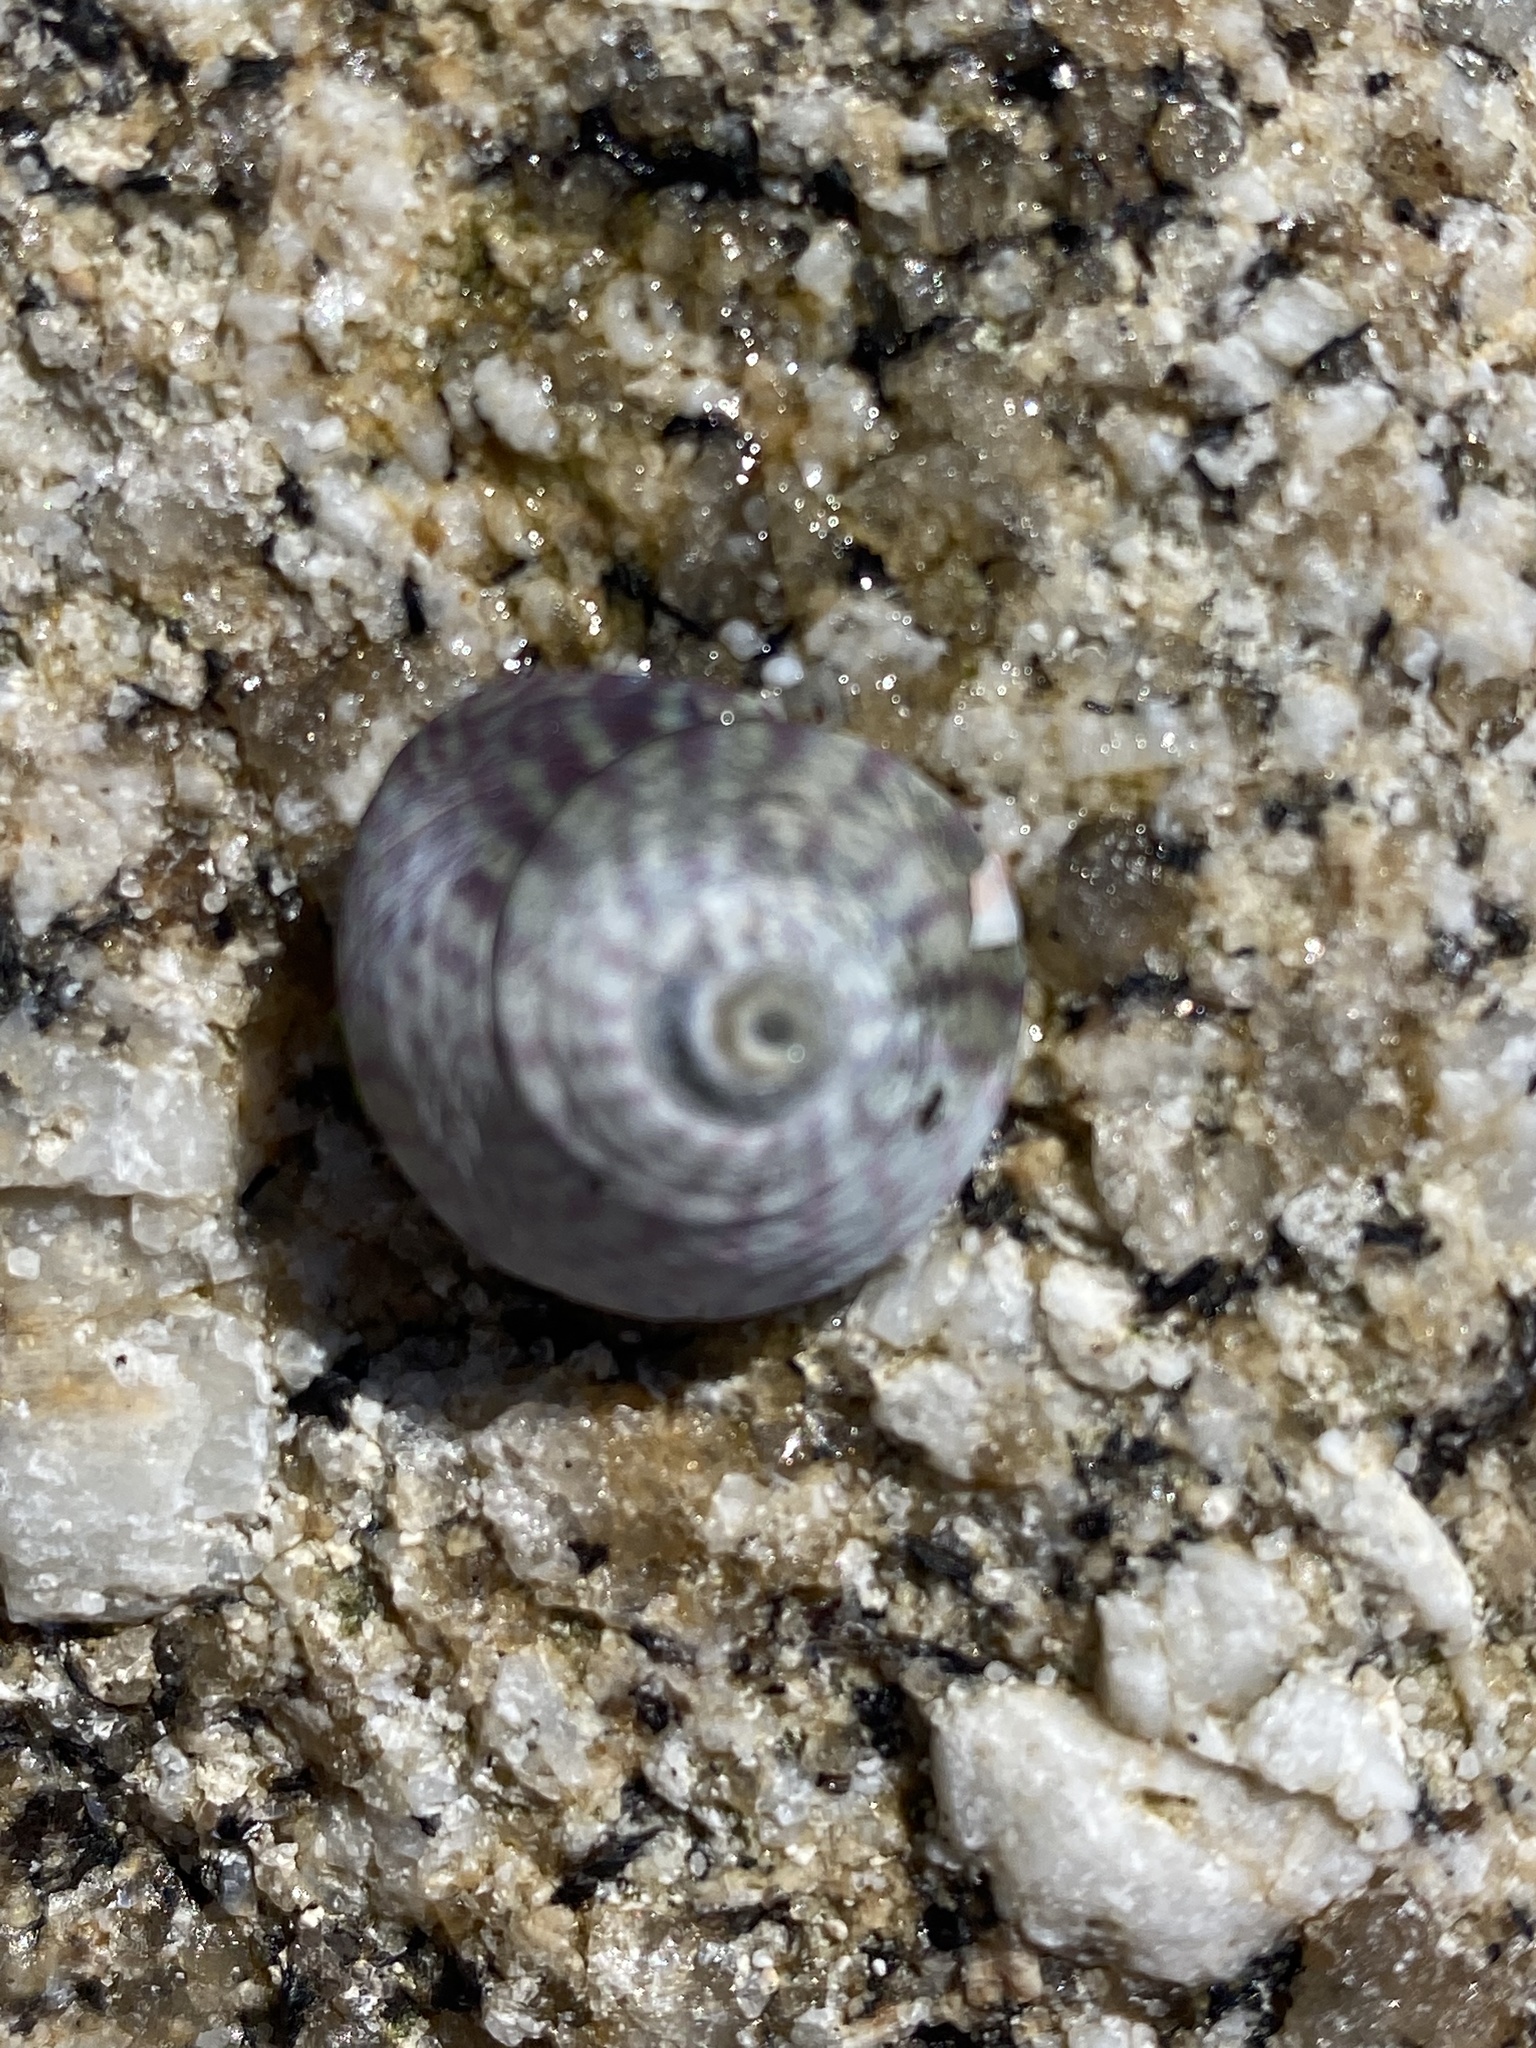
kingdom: Animalia
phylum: Mollusca
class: Gastropoda
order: Trochida
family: Trochidae
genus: Steromphala
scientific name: Steromphala umbilicalis
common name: Flat top shell
